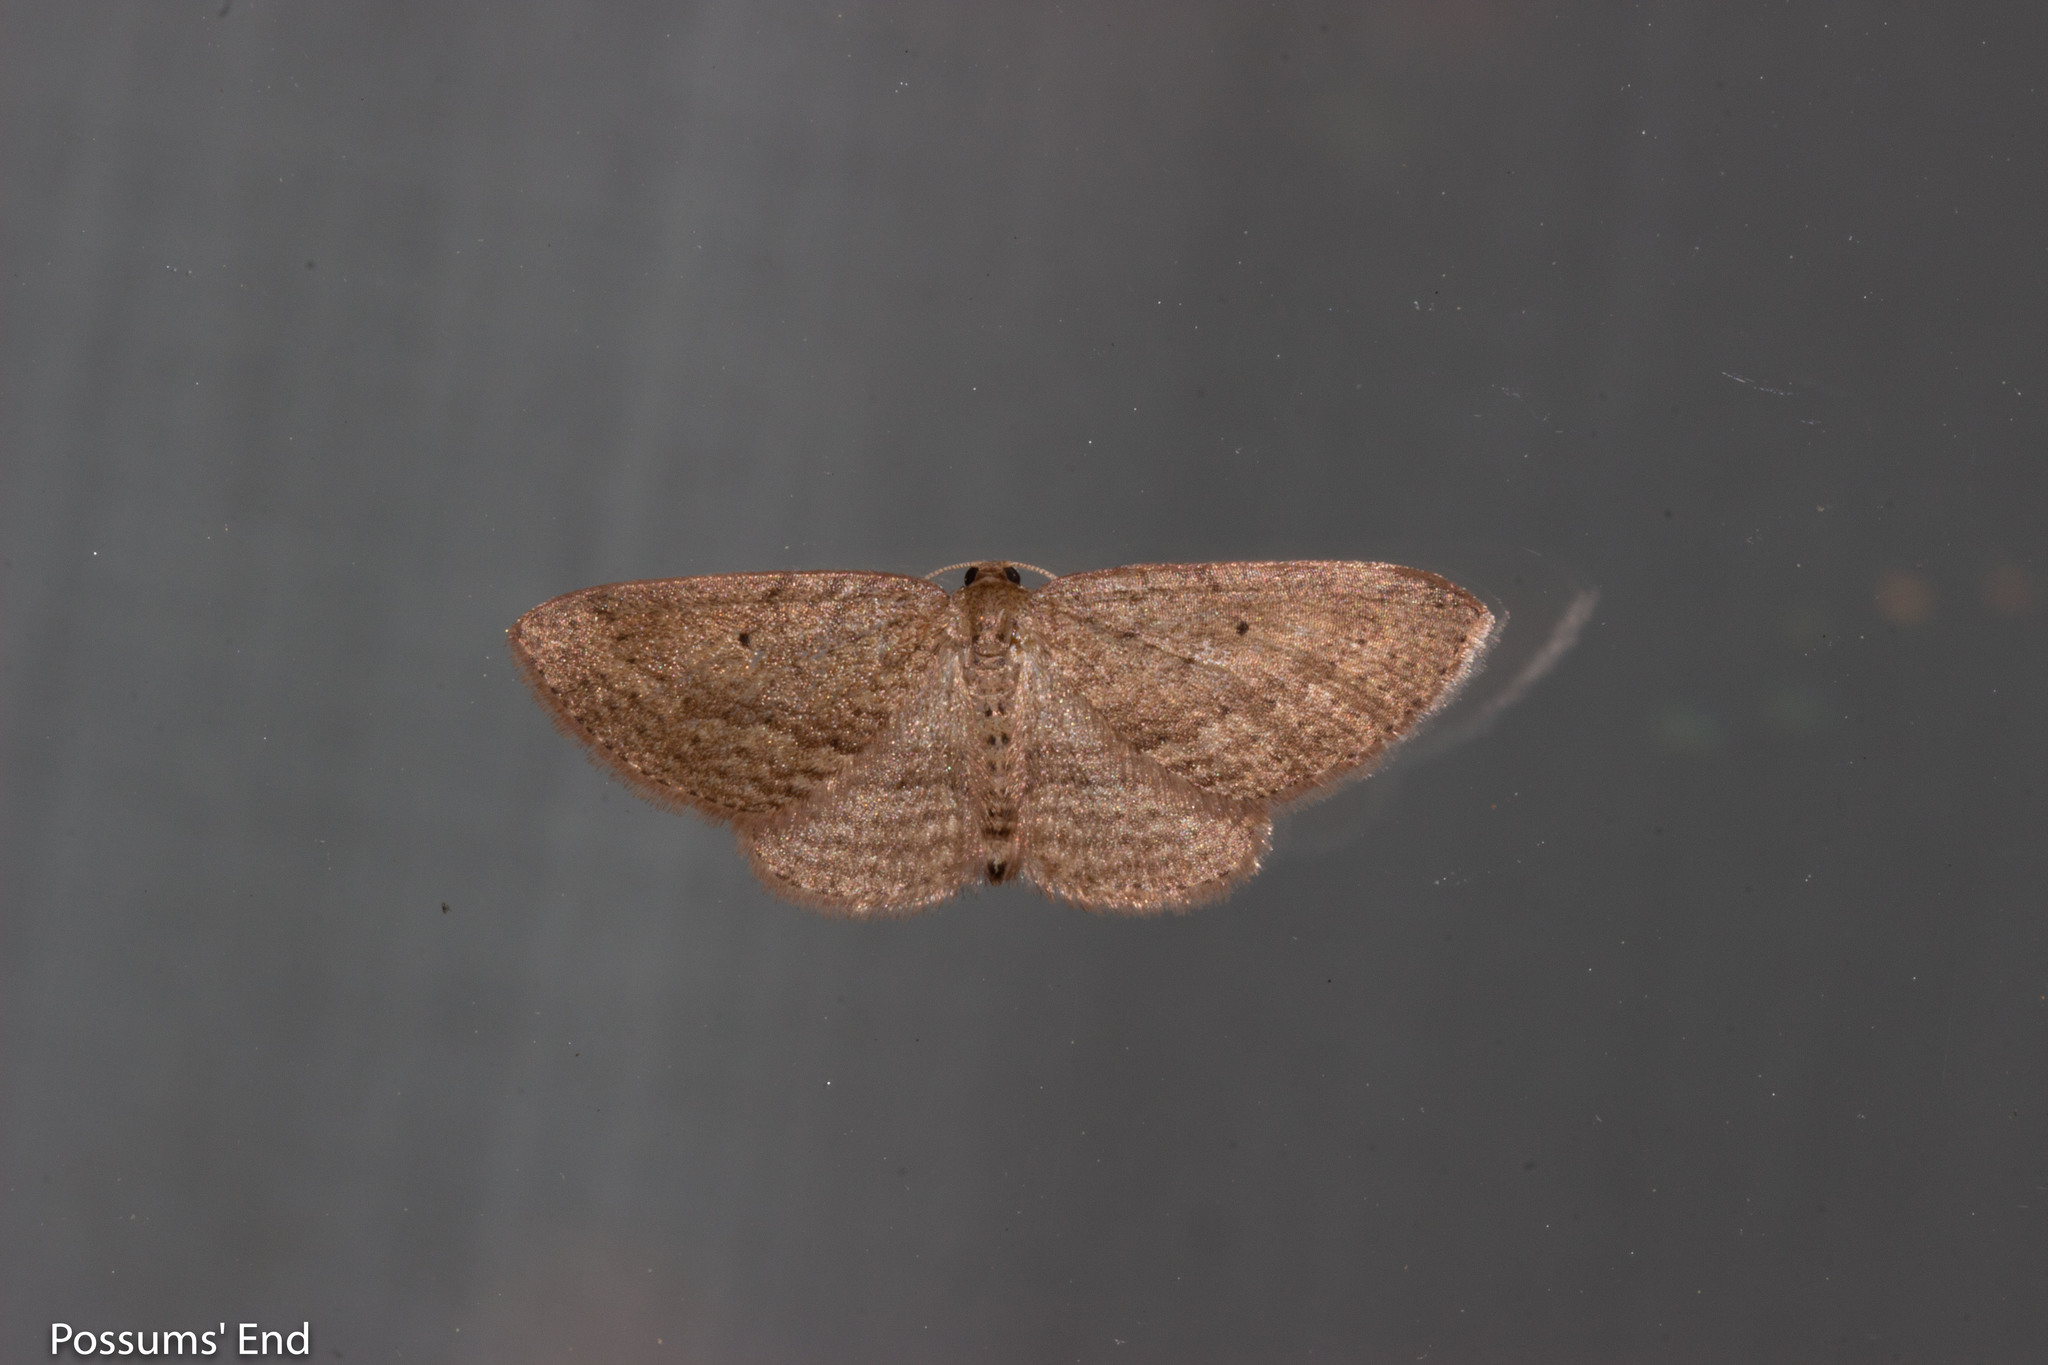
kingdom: Animalia
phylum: Arthropoda
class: Insecta
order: Lepidoptera
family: Geometridae
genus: Poecilasthena
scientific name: Poecilasthena schistaria
